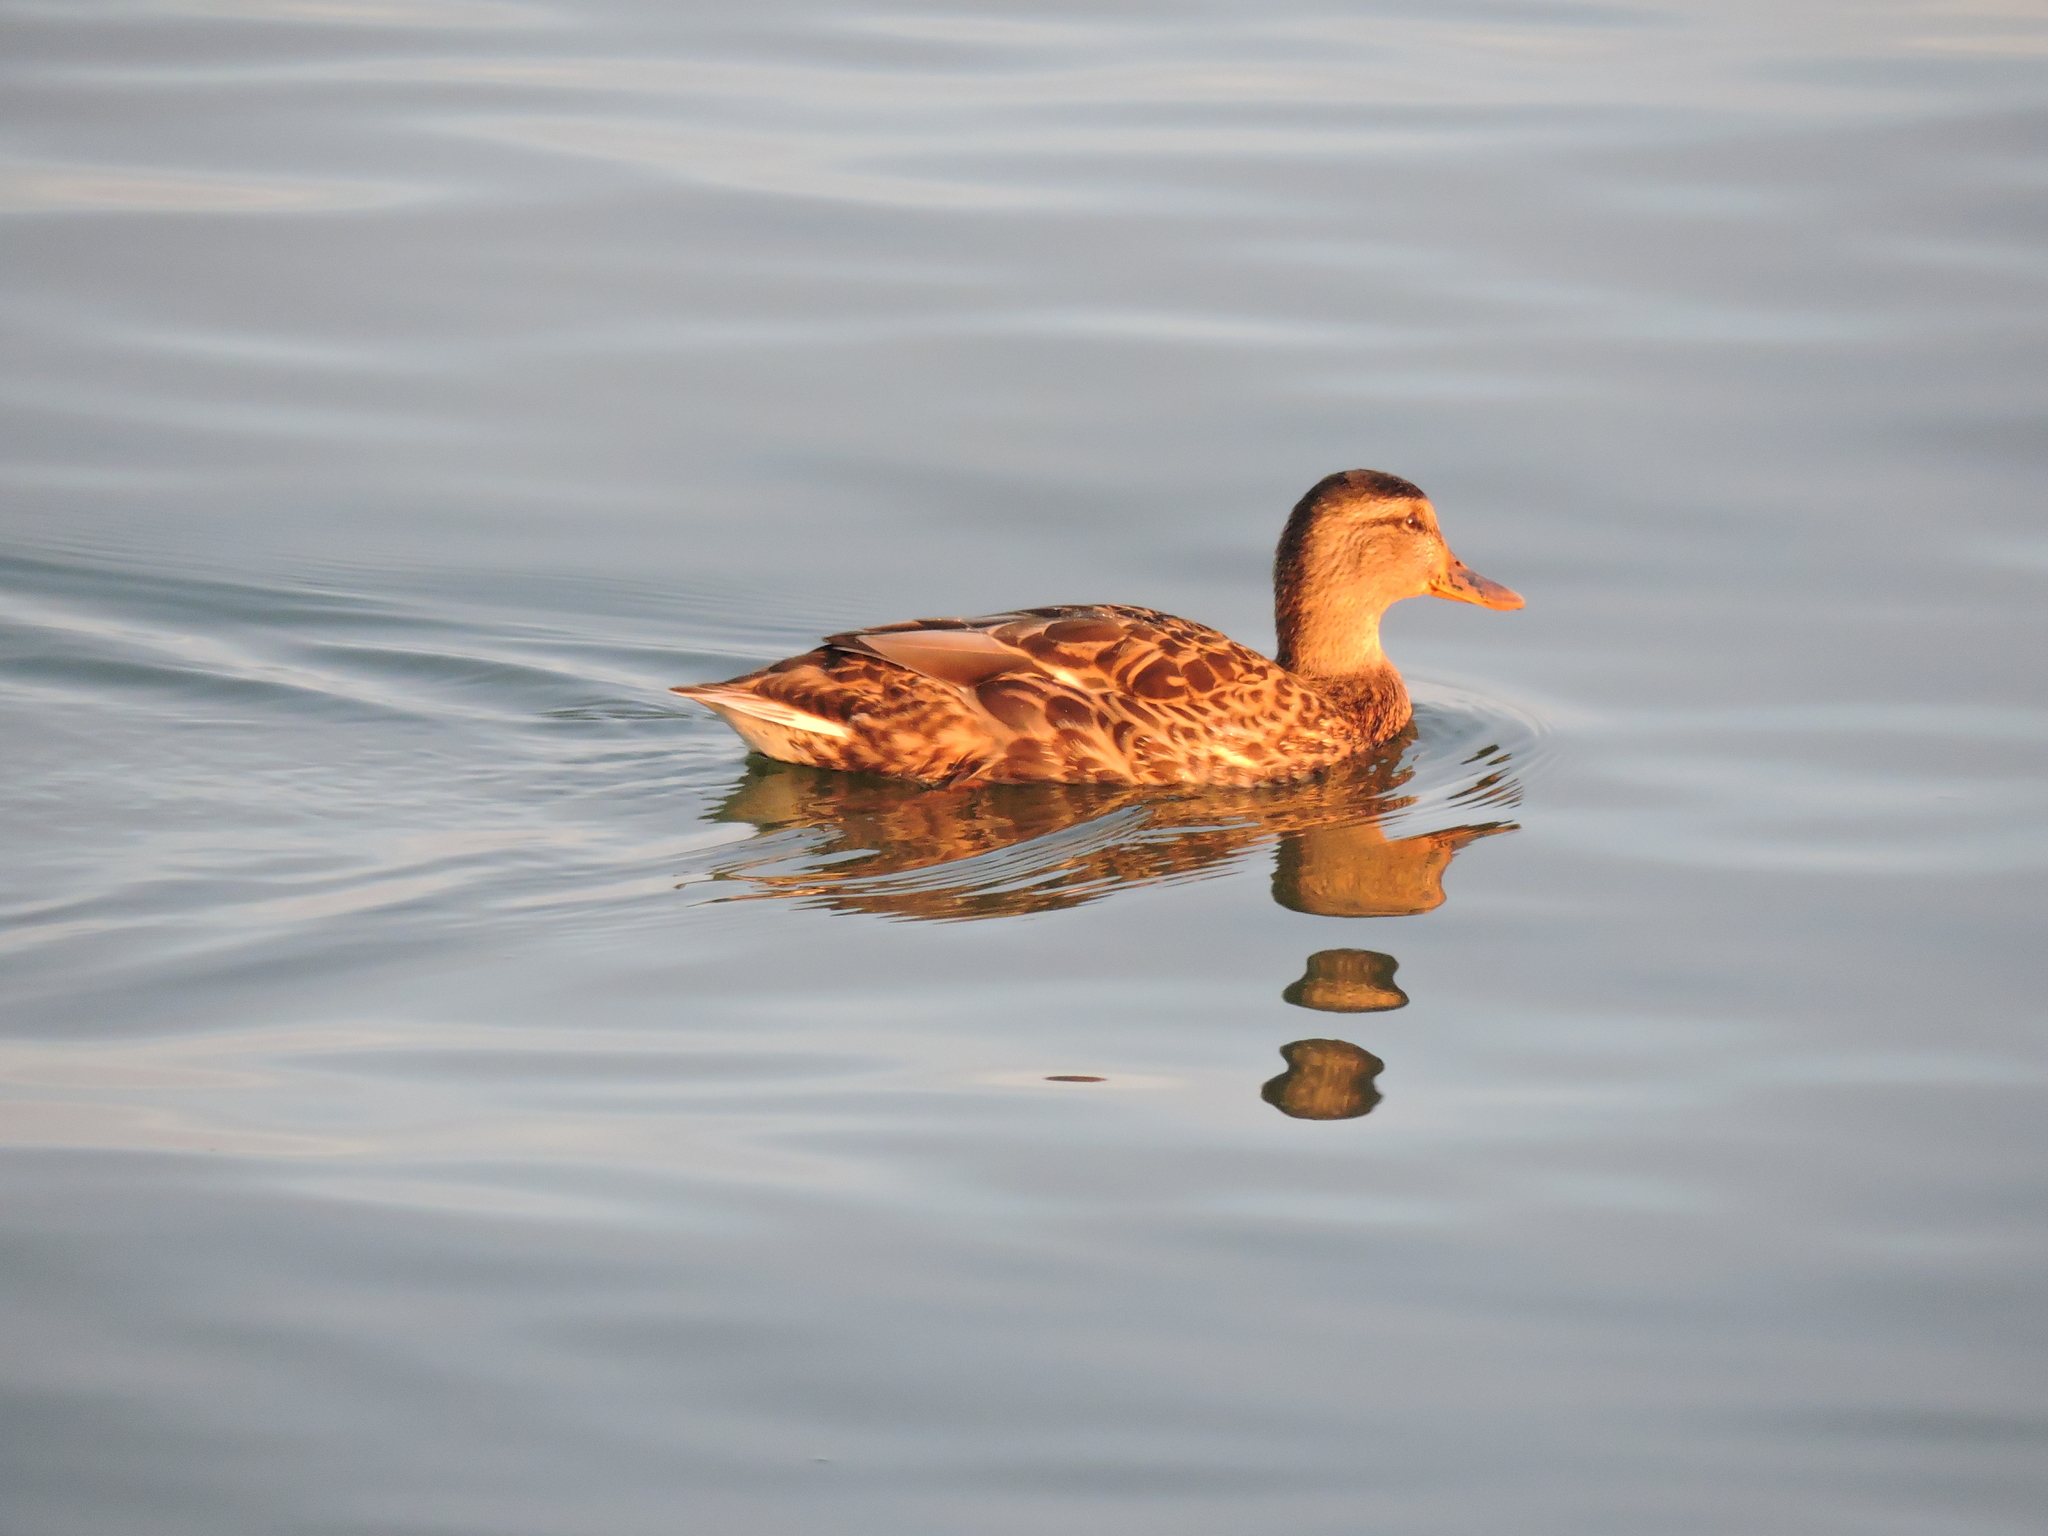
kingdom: Animalia
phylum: Chordata
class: Aves
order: Anseriformes
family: Anatidae
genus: Anas
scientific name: Anas platyrhynchos
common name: Mallard
